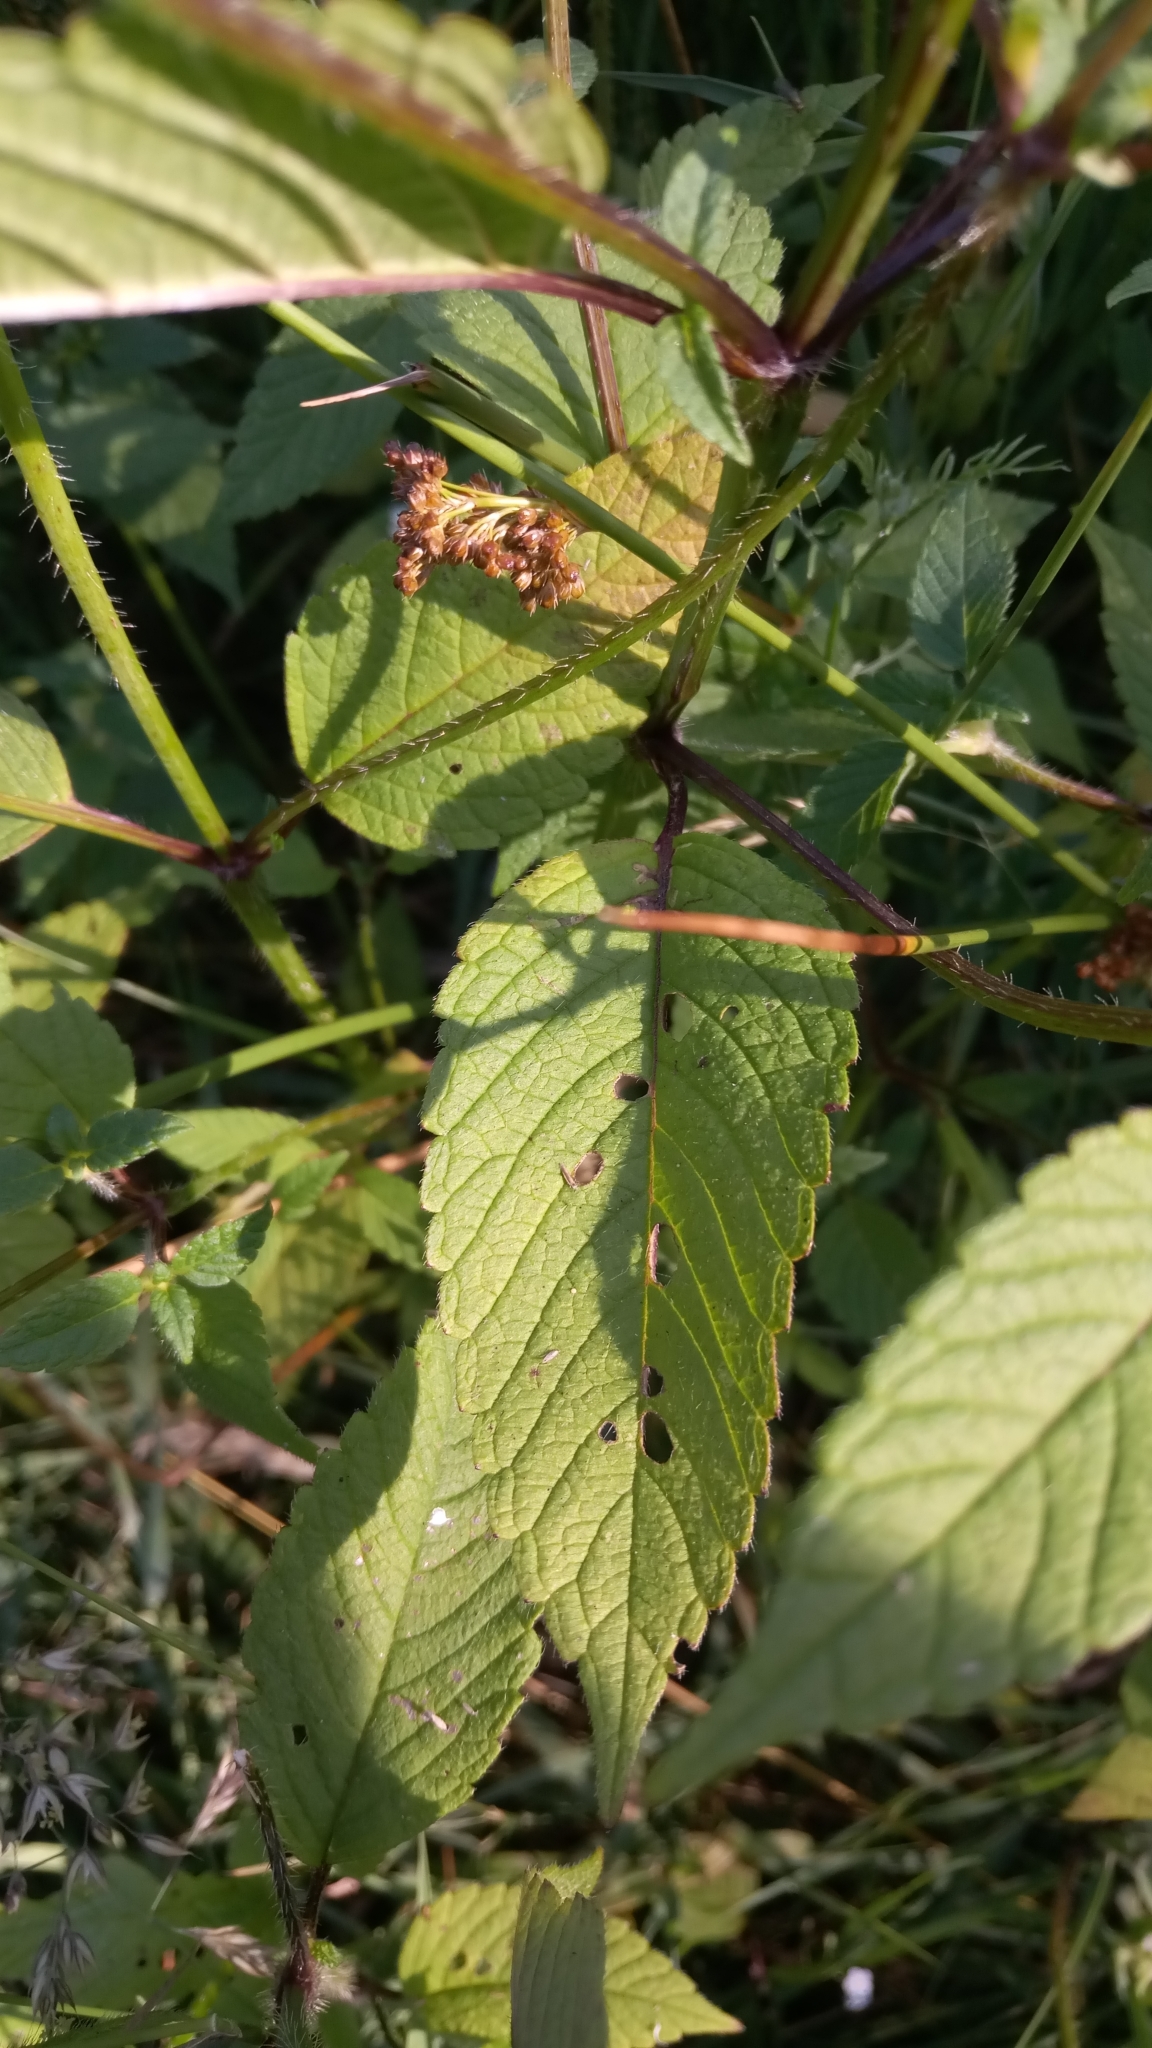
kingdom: Plantae
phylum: Tracheophyta
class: Magnoliopsida
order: Lamiales
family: Lamiaceae
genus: Galeopsis
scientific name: Galeopsis tetrahit
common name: Common hemp-nettle
